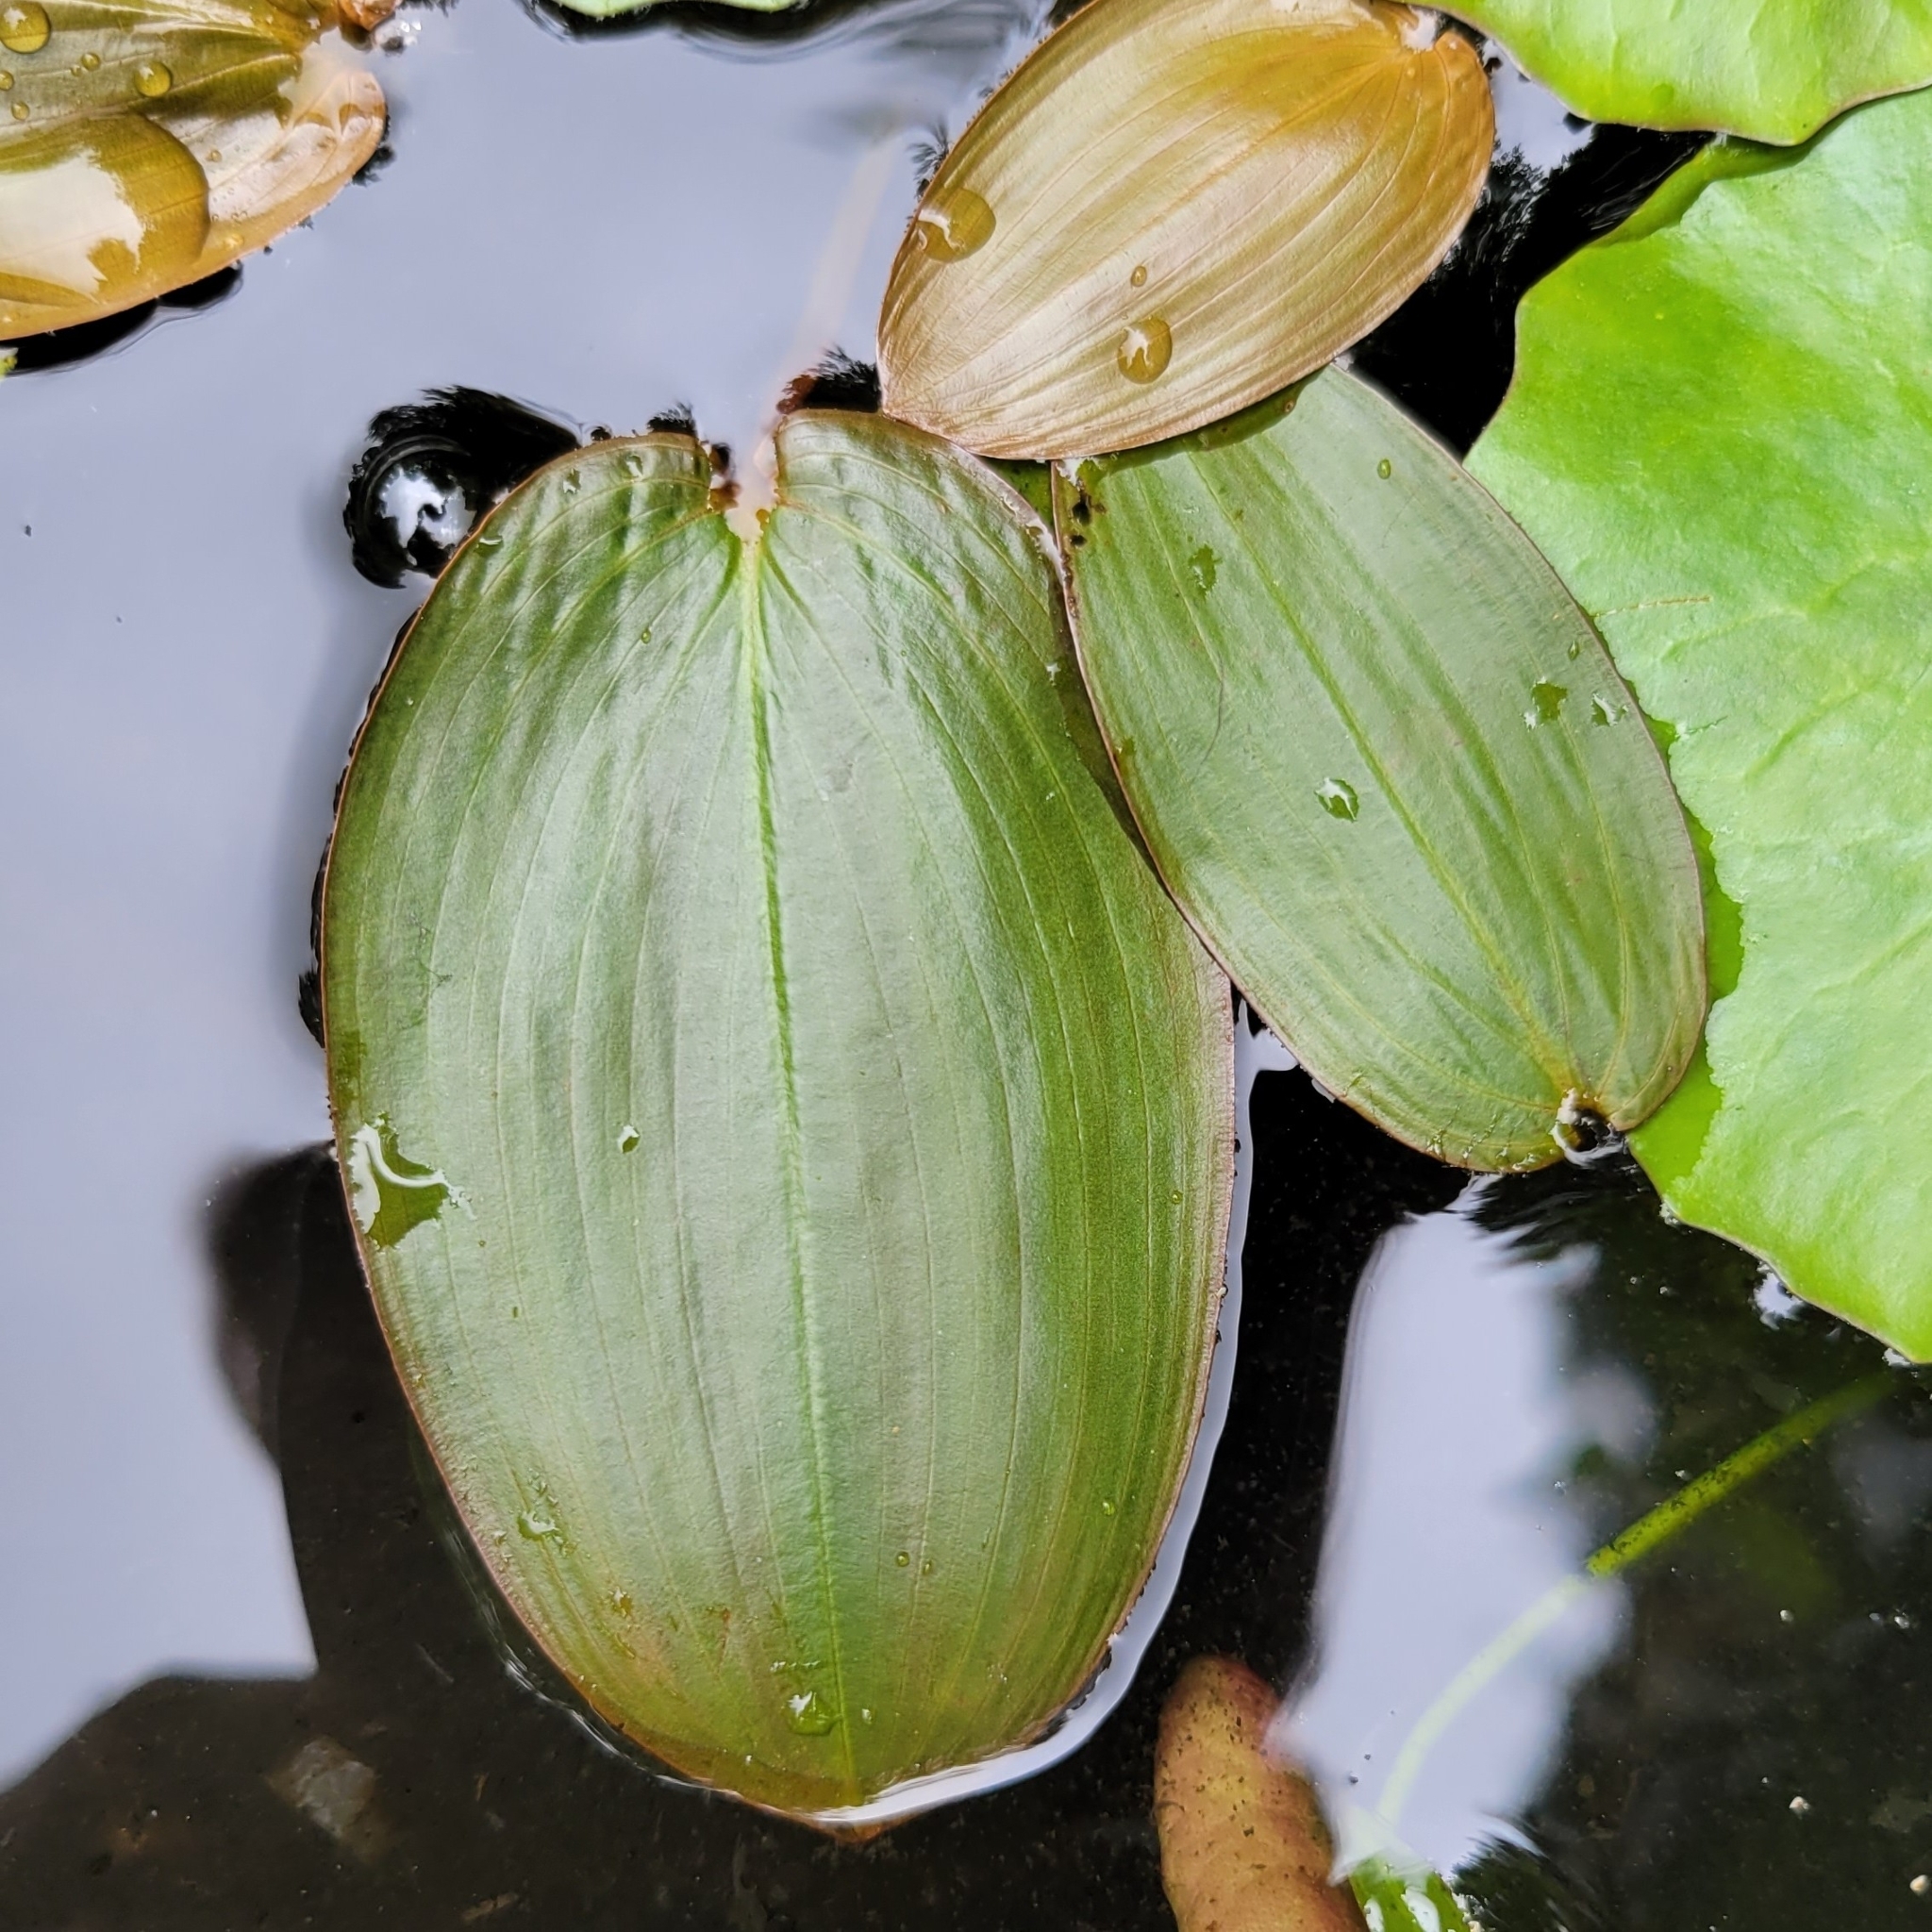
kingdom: Plantae
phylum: Tracheophyta
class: Liliopsida
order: Alismatales
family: Potamogetonaceae
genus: Potamogeton
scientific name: Potamogeton natans
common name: Broad-leaved pondweed
